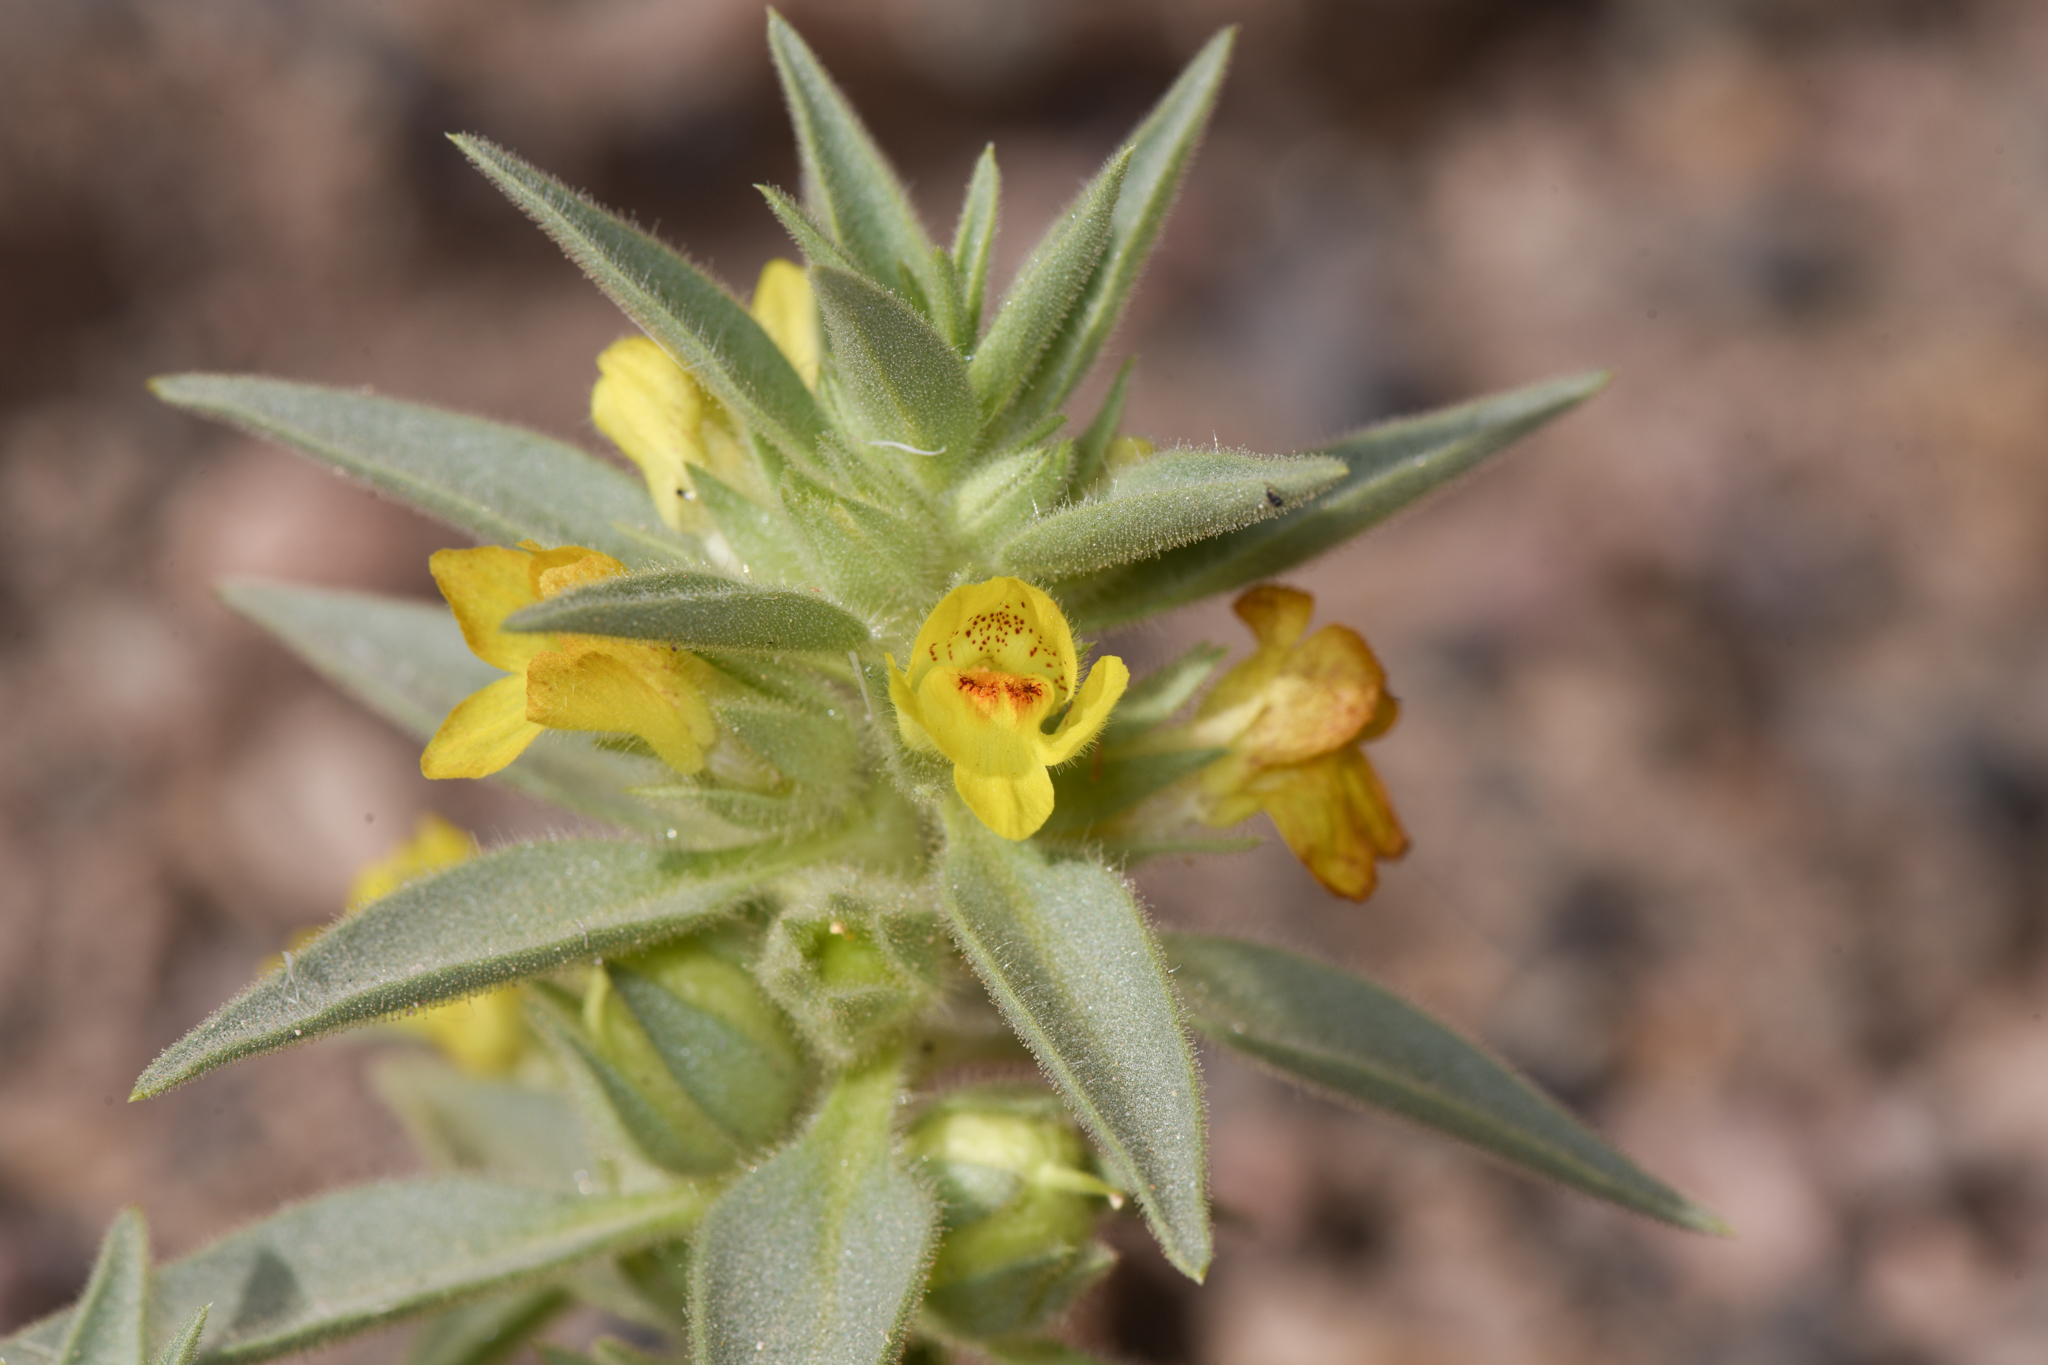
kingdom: Plantae
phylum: Tracheophyta
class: Magnoliopsida
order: Lamiales
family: Plantaginaceae
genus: Mohavea
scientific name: Mohavea breviflora
